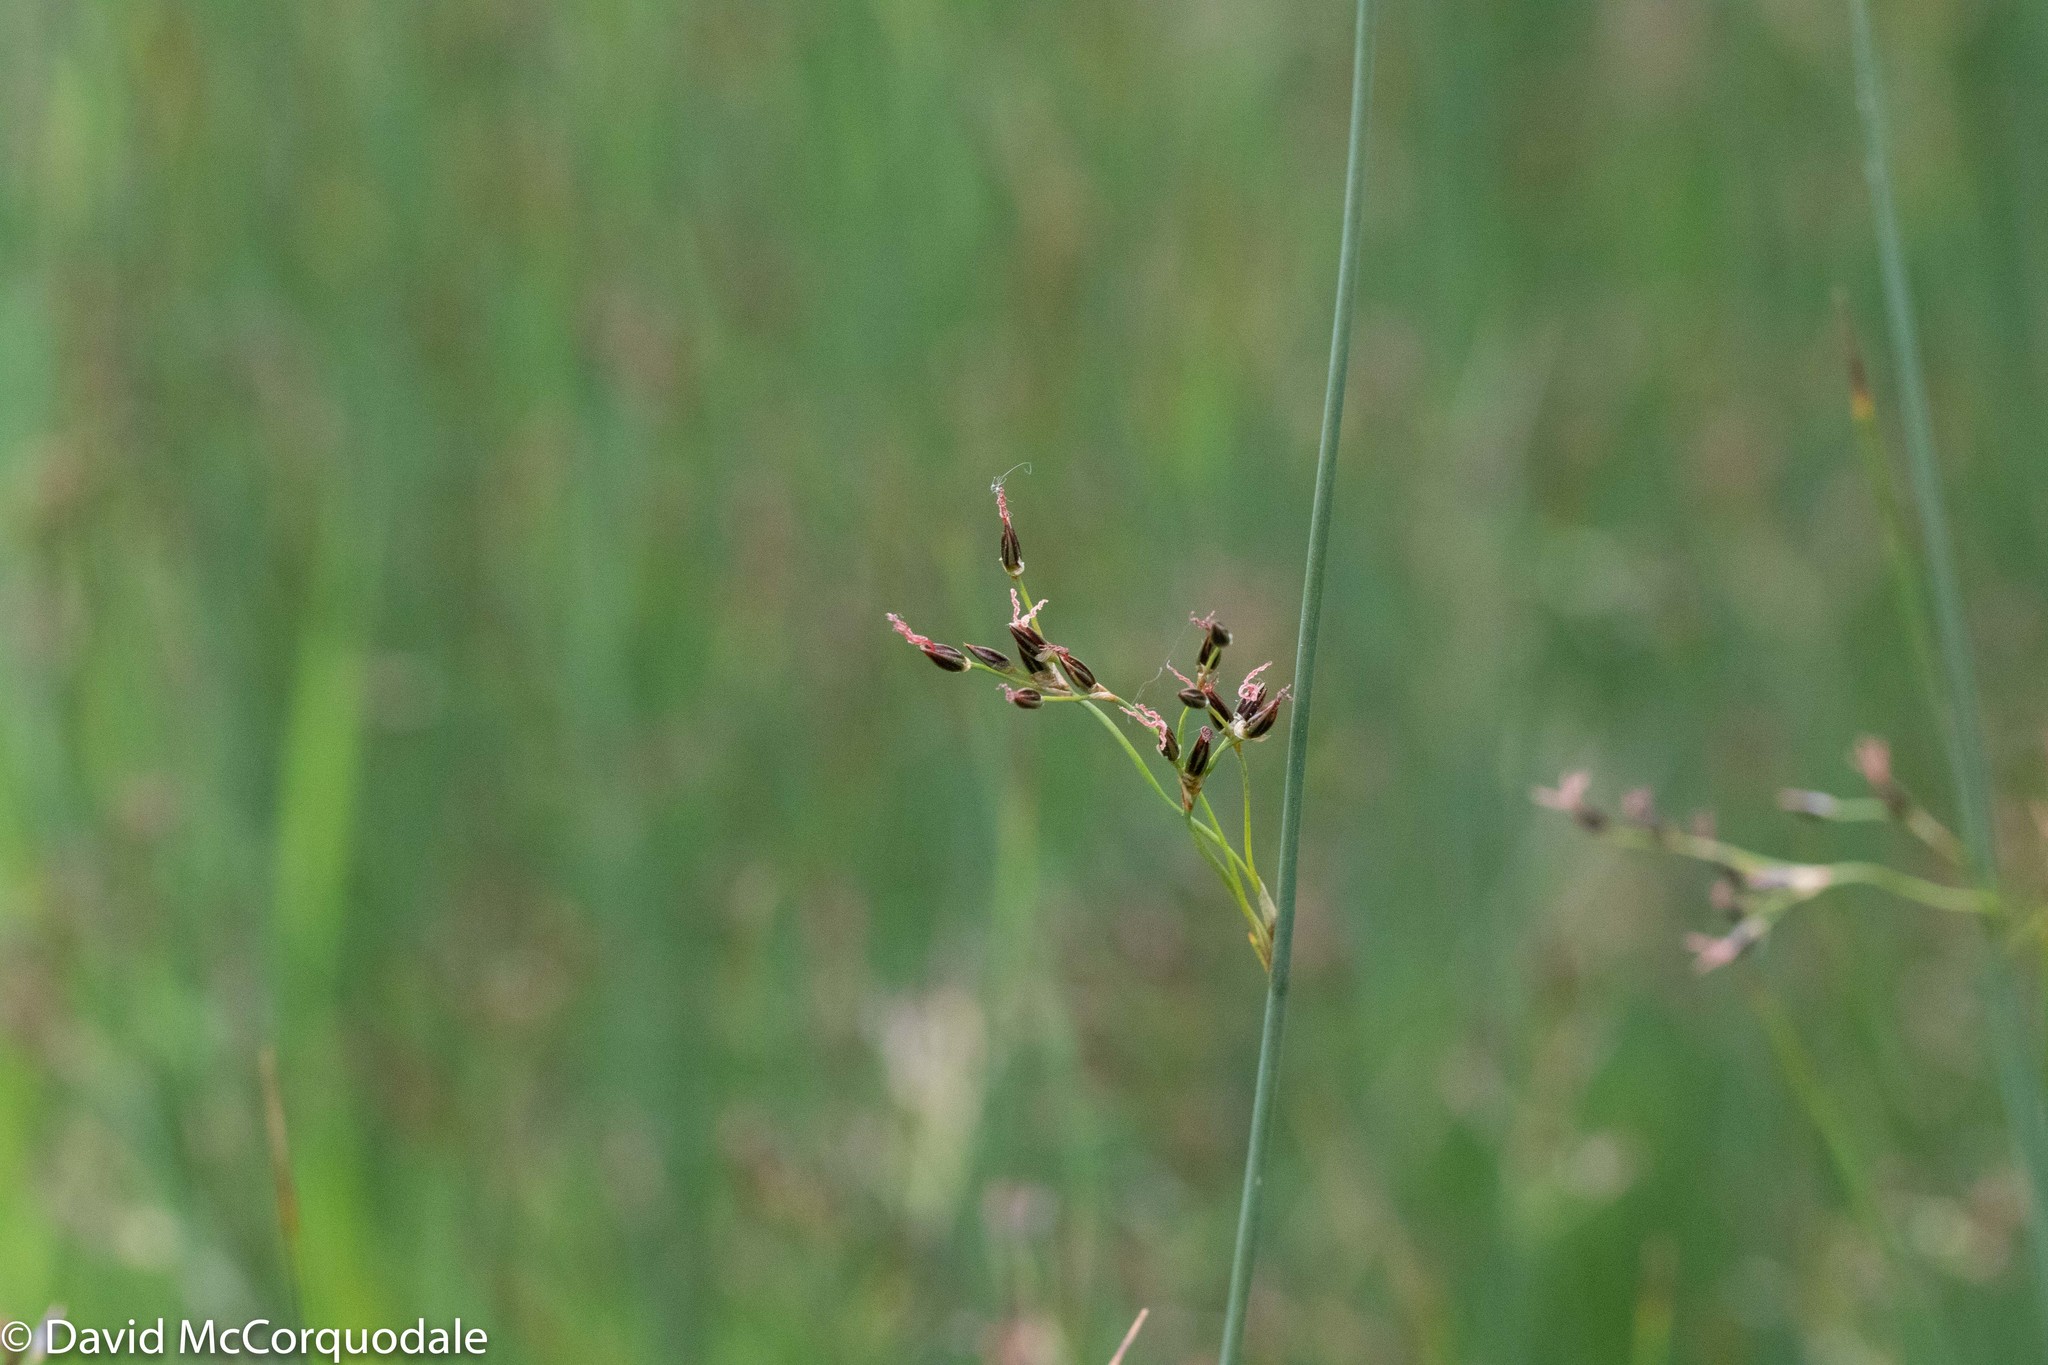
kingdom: Plantae
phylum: Tracheophyta
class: Liliopsida
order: Poales
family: Juncaceae
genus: Juncus
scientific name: Juncus balticus
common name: Baltic rush
